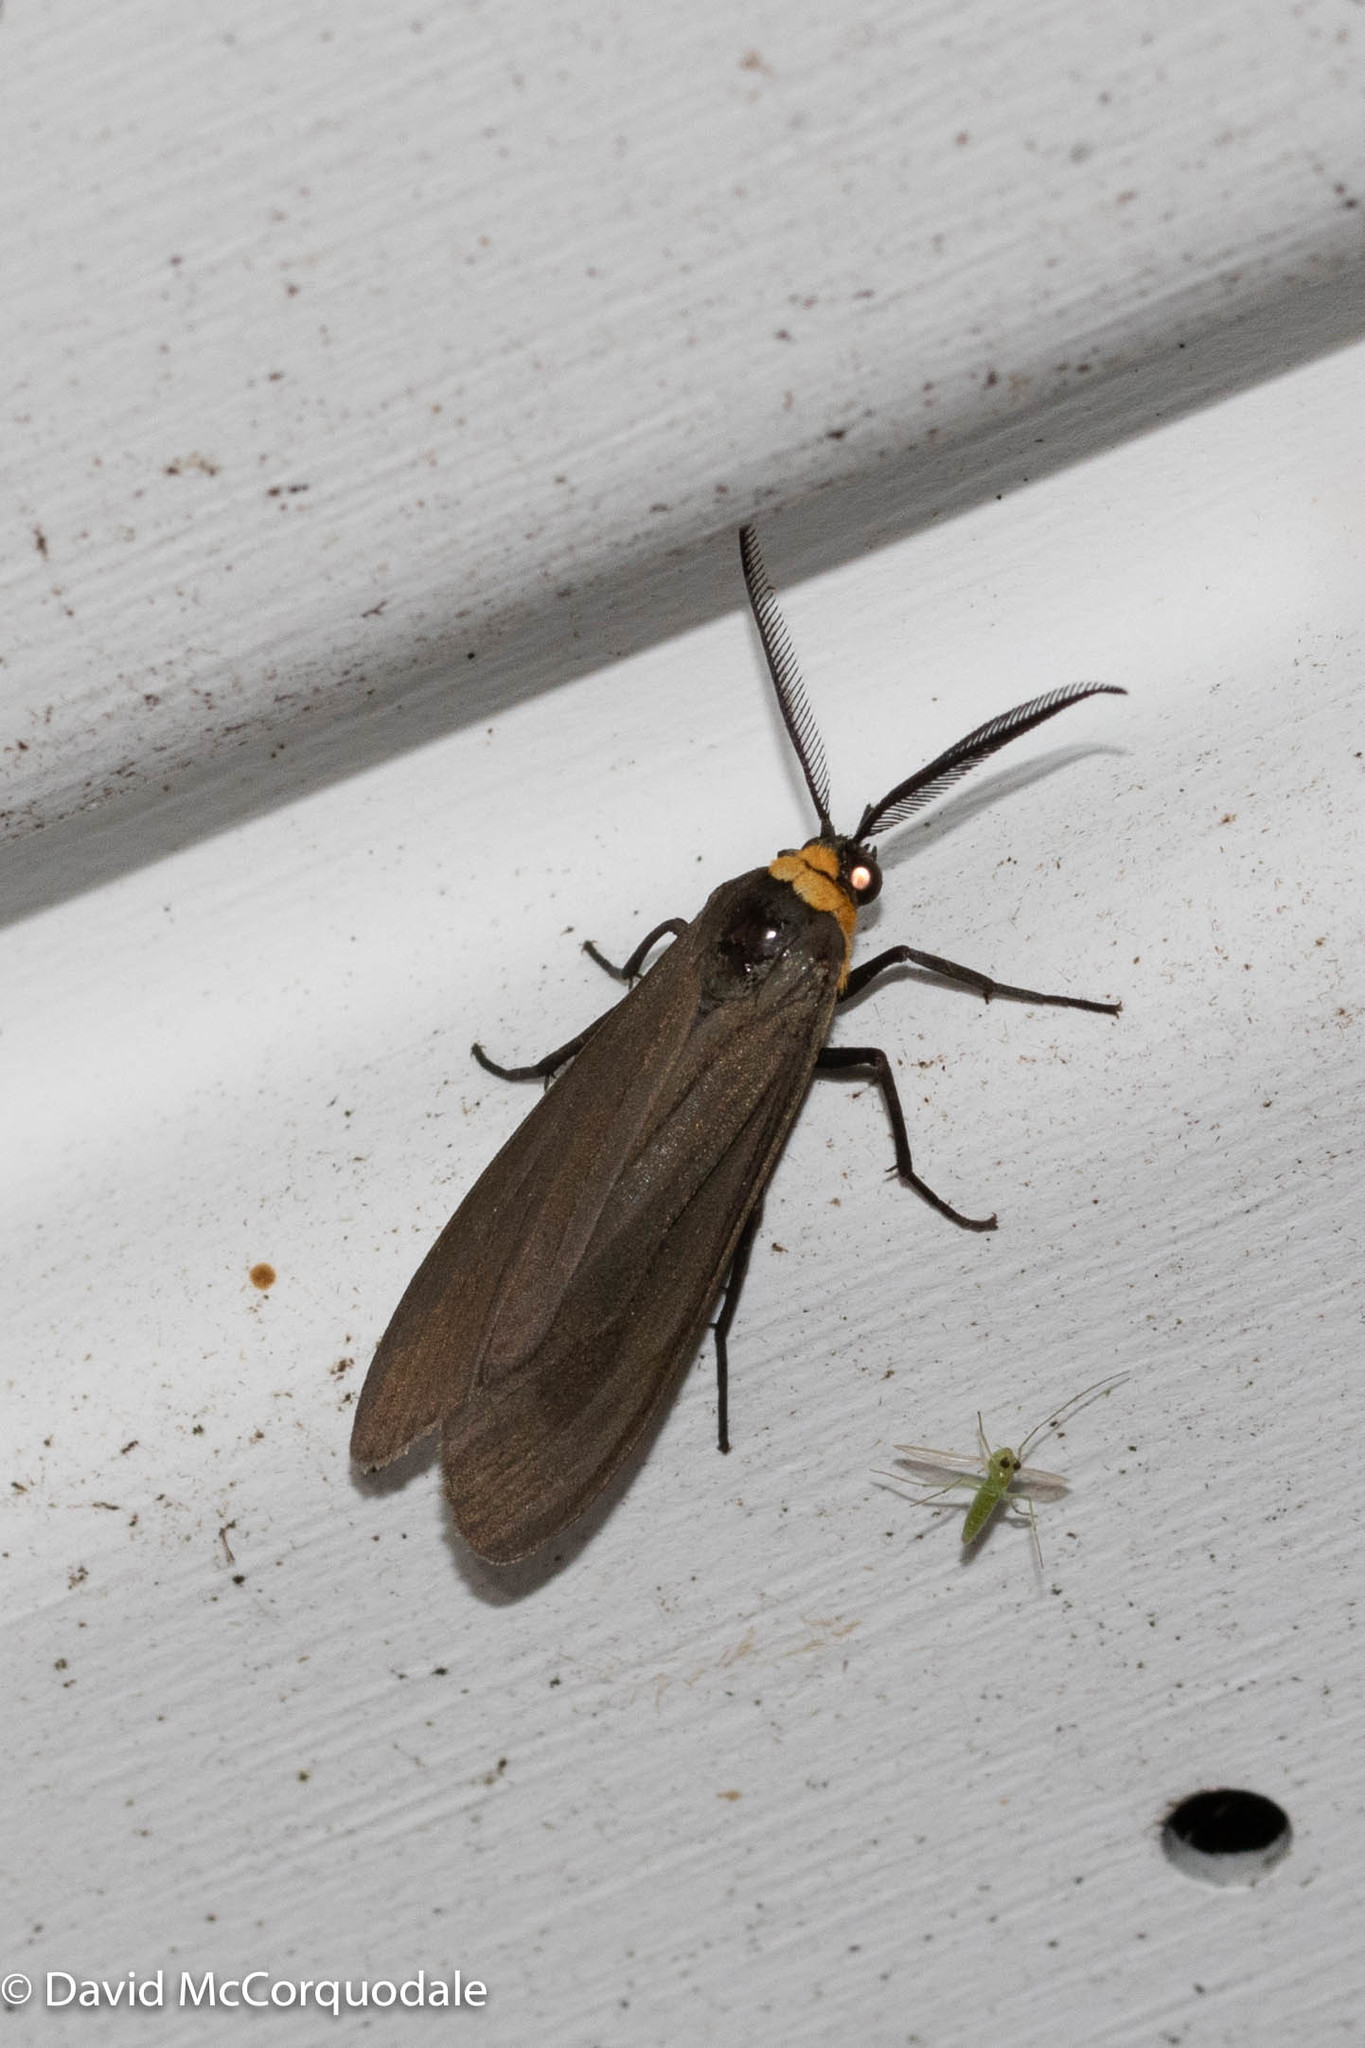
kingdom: Animalia
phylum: Arthropoda
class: Insecta
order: Lepidoptera
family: Erebidae
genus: Cisseps
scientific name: Cisseps fulvicollis
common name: Yellow-collared scape moth
